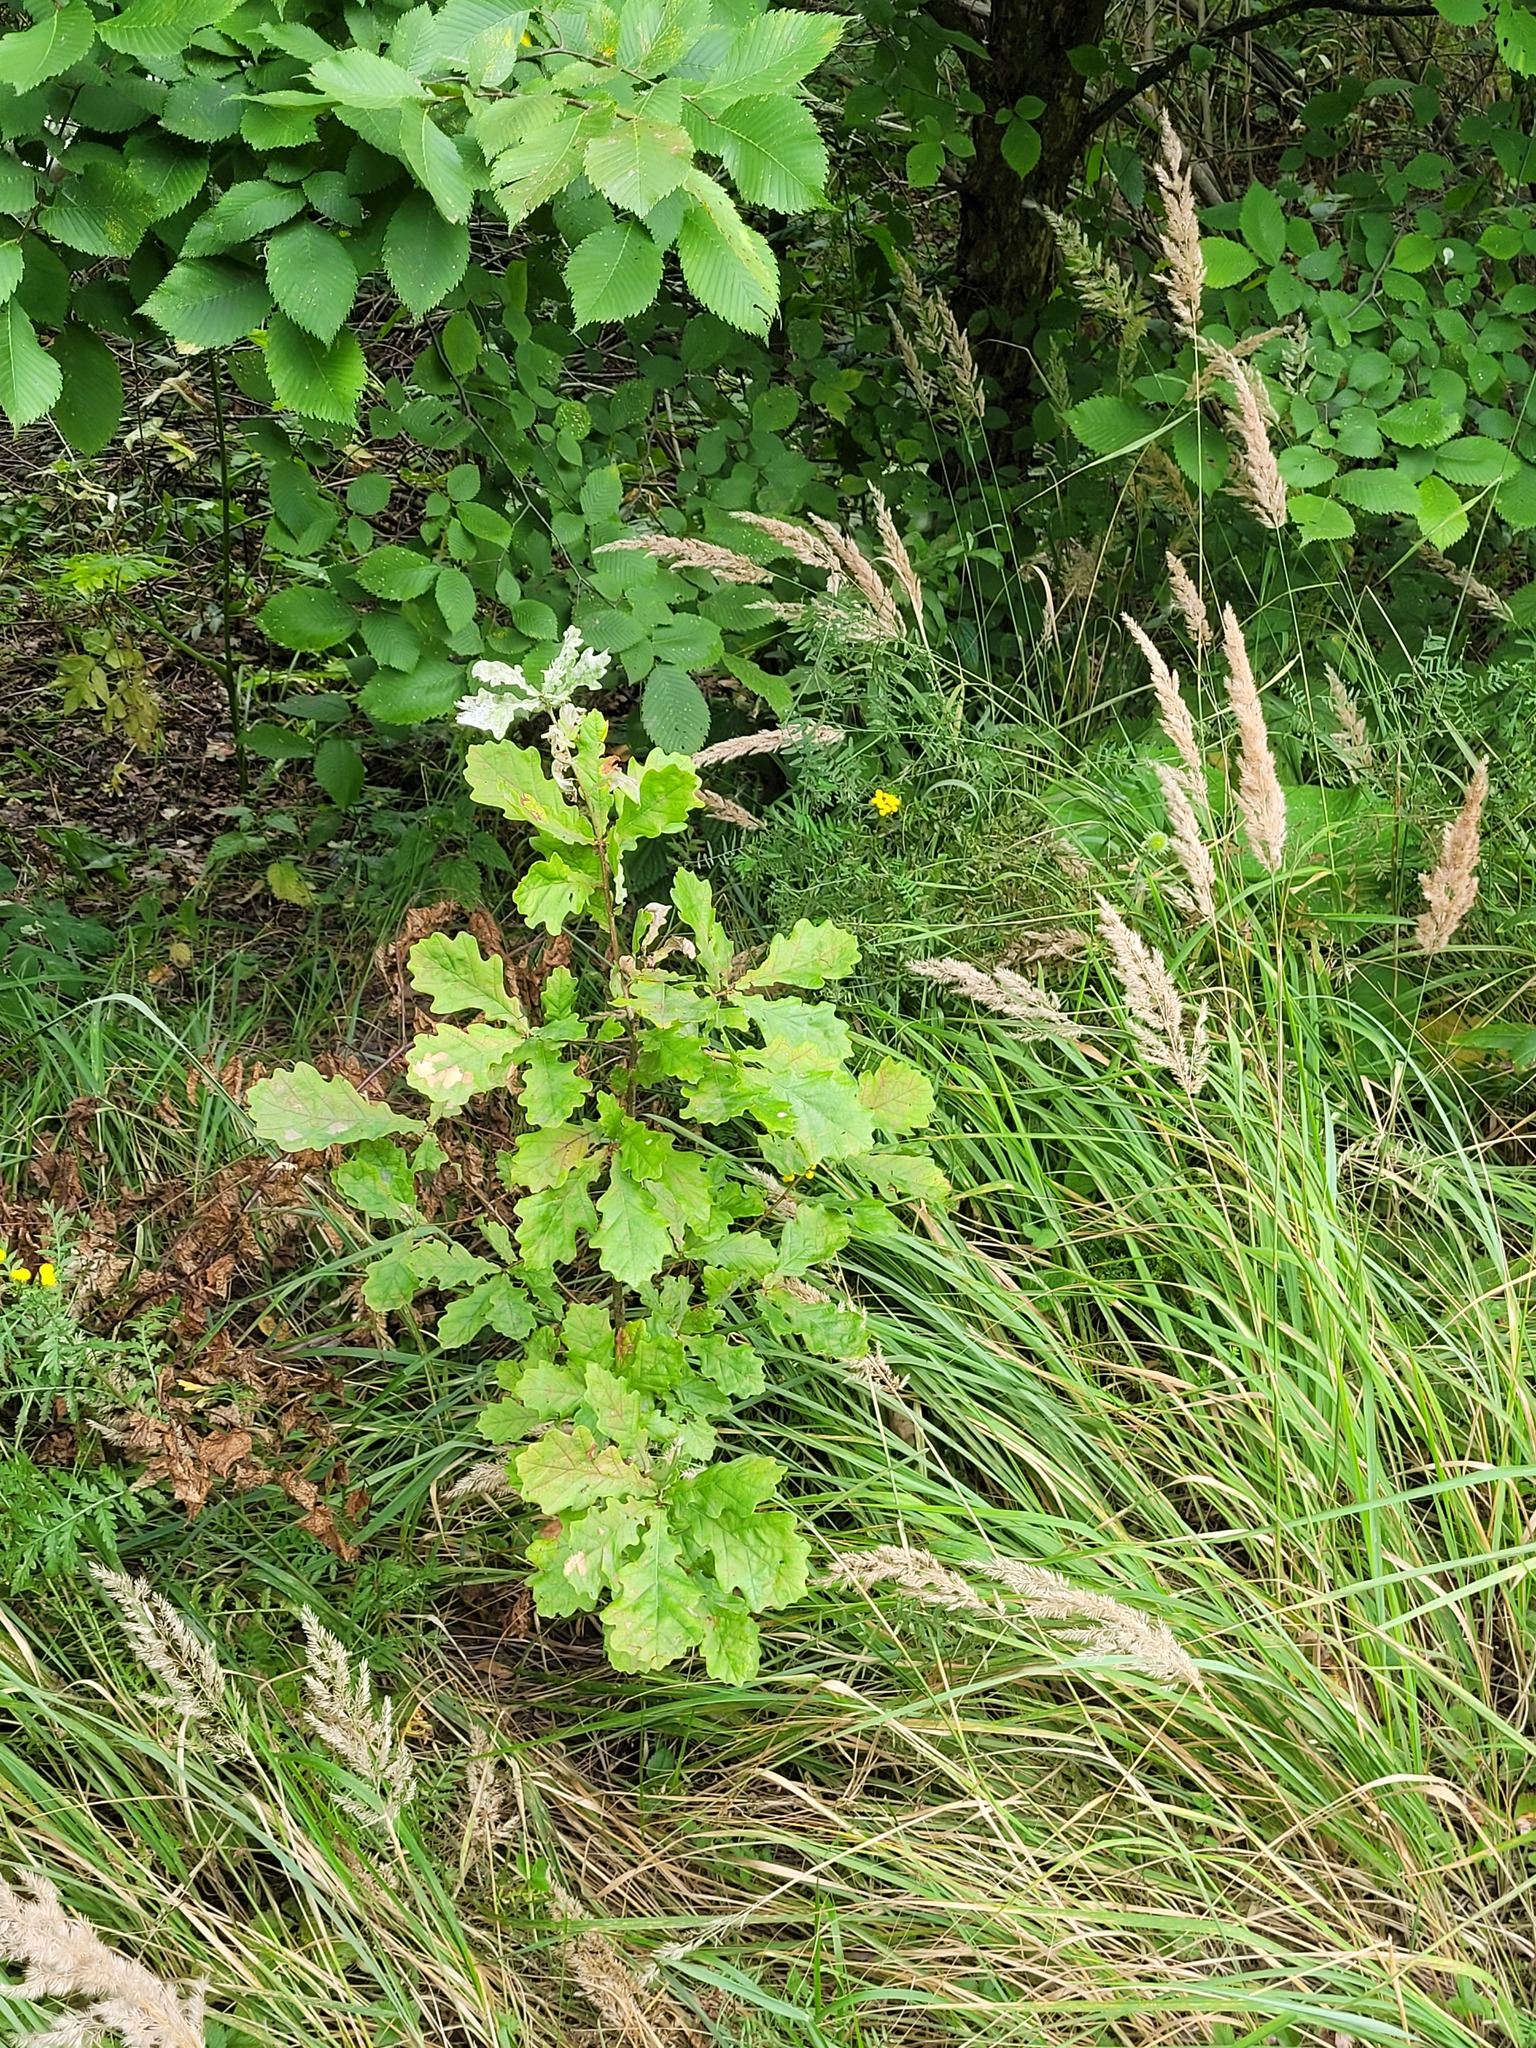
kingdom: Plantae
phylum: Tracheophyta
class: Magnoliopsida
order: Fagales
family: Fagaceae
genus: Quercus
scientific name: Quercus robur
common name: Pedunculate oak
